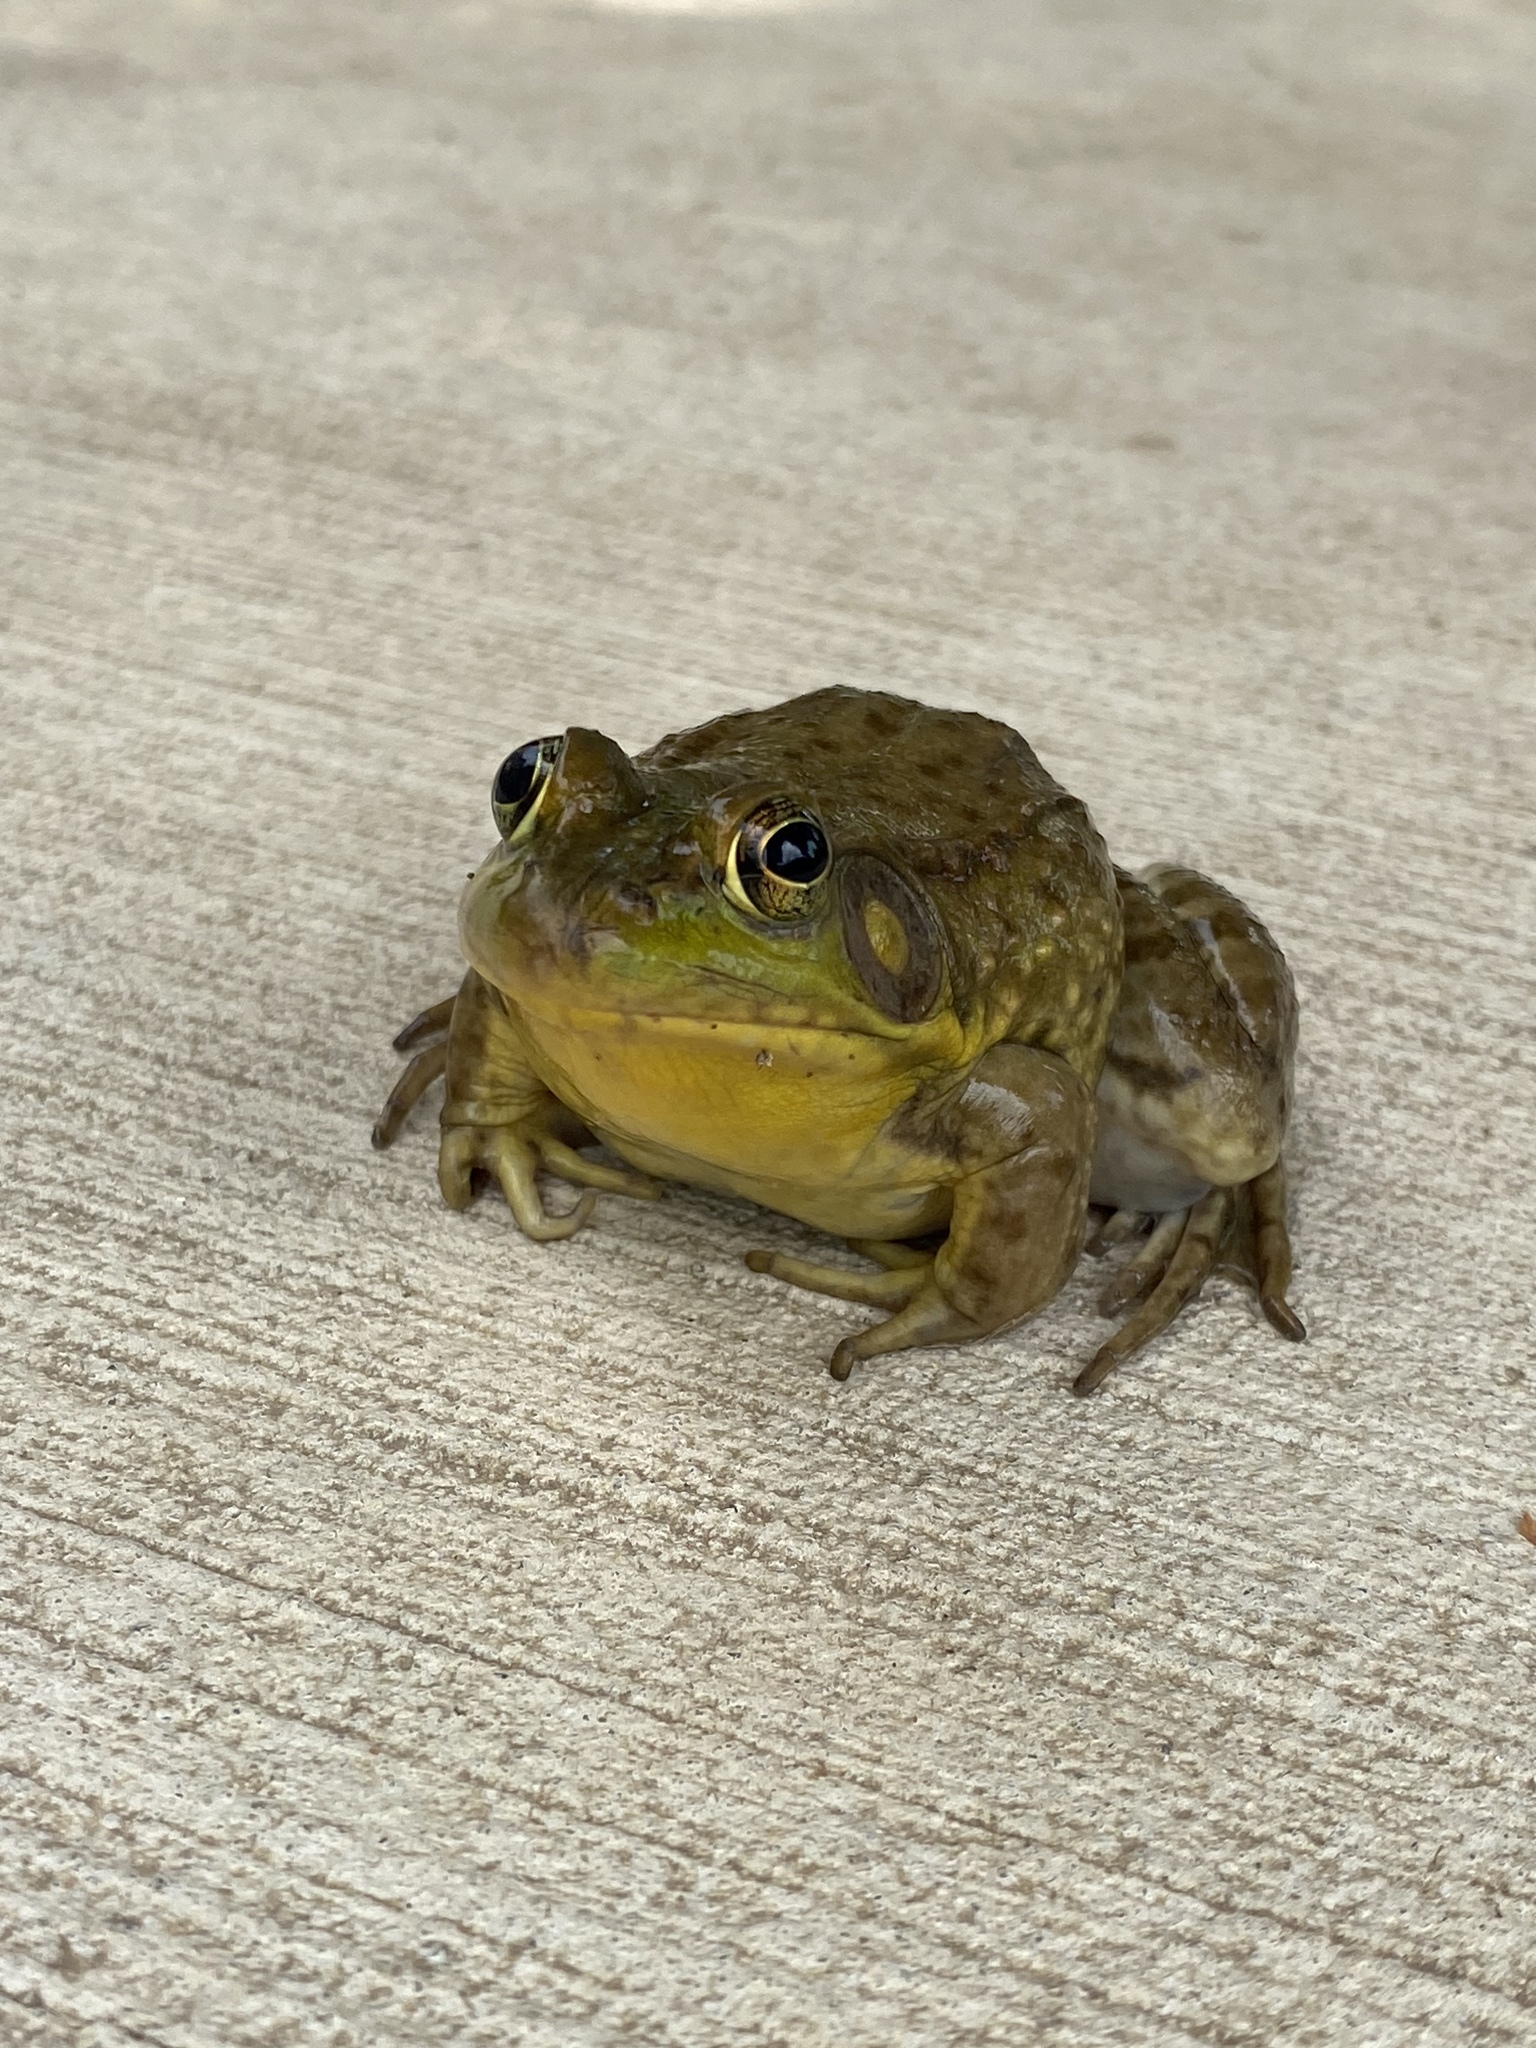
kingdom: Animalia
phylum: Chordata
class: Amphibia
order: Anura
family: Ranidae
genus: Lithobates
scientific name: Lithobates clamitans
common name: Green frog
